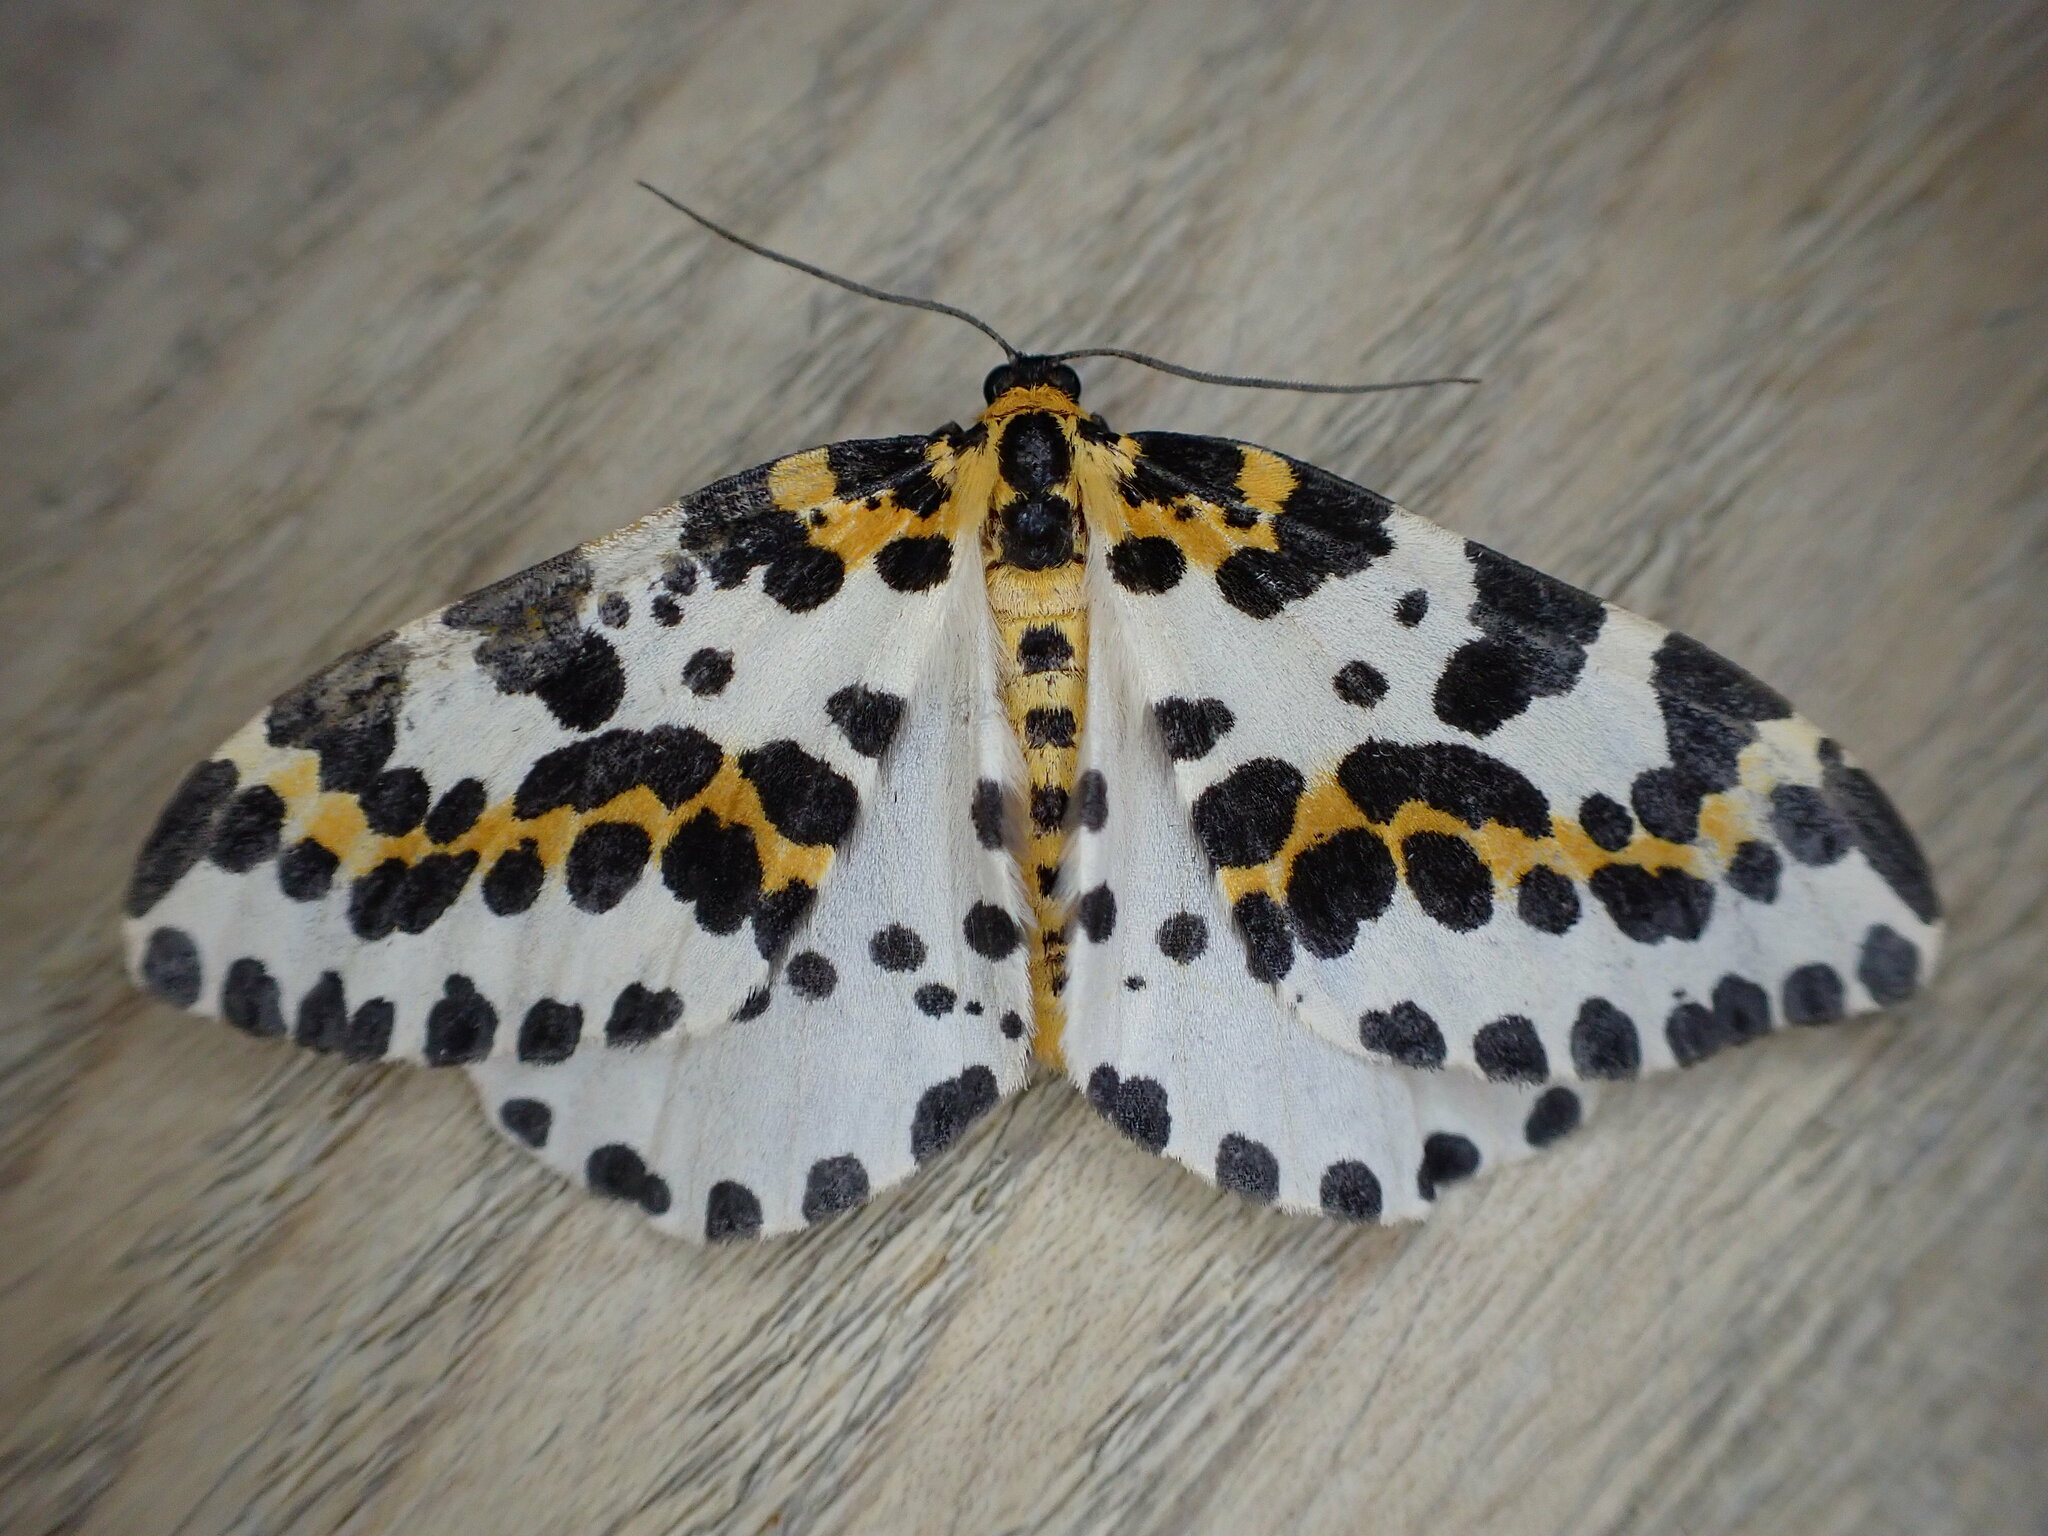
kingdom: Animalia
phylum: Arthropoda
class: Insecta
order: Lepidoptera
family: Geometridae
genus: Abraxas
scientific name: Abraxas grossulariata
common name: Magpie
